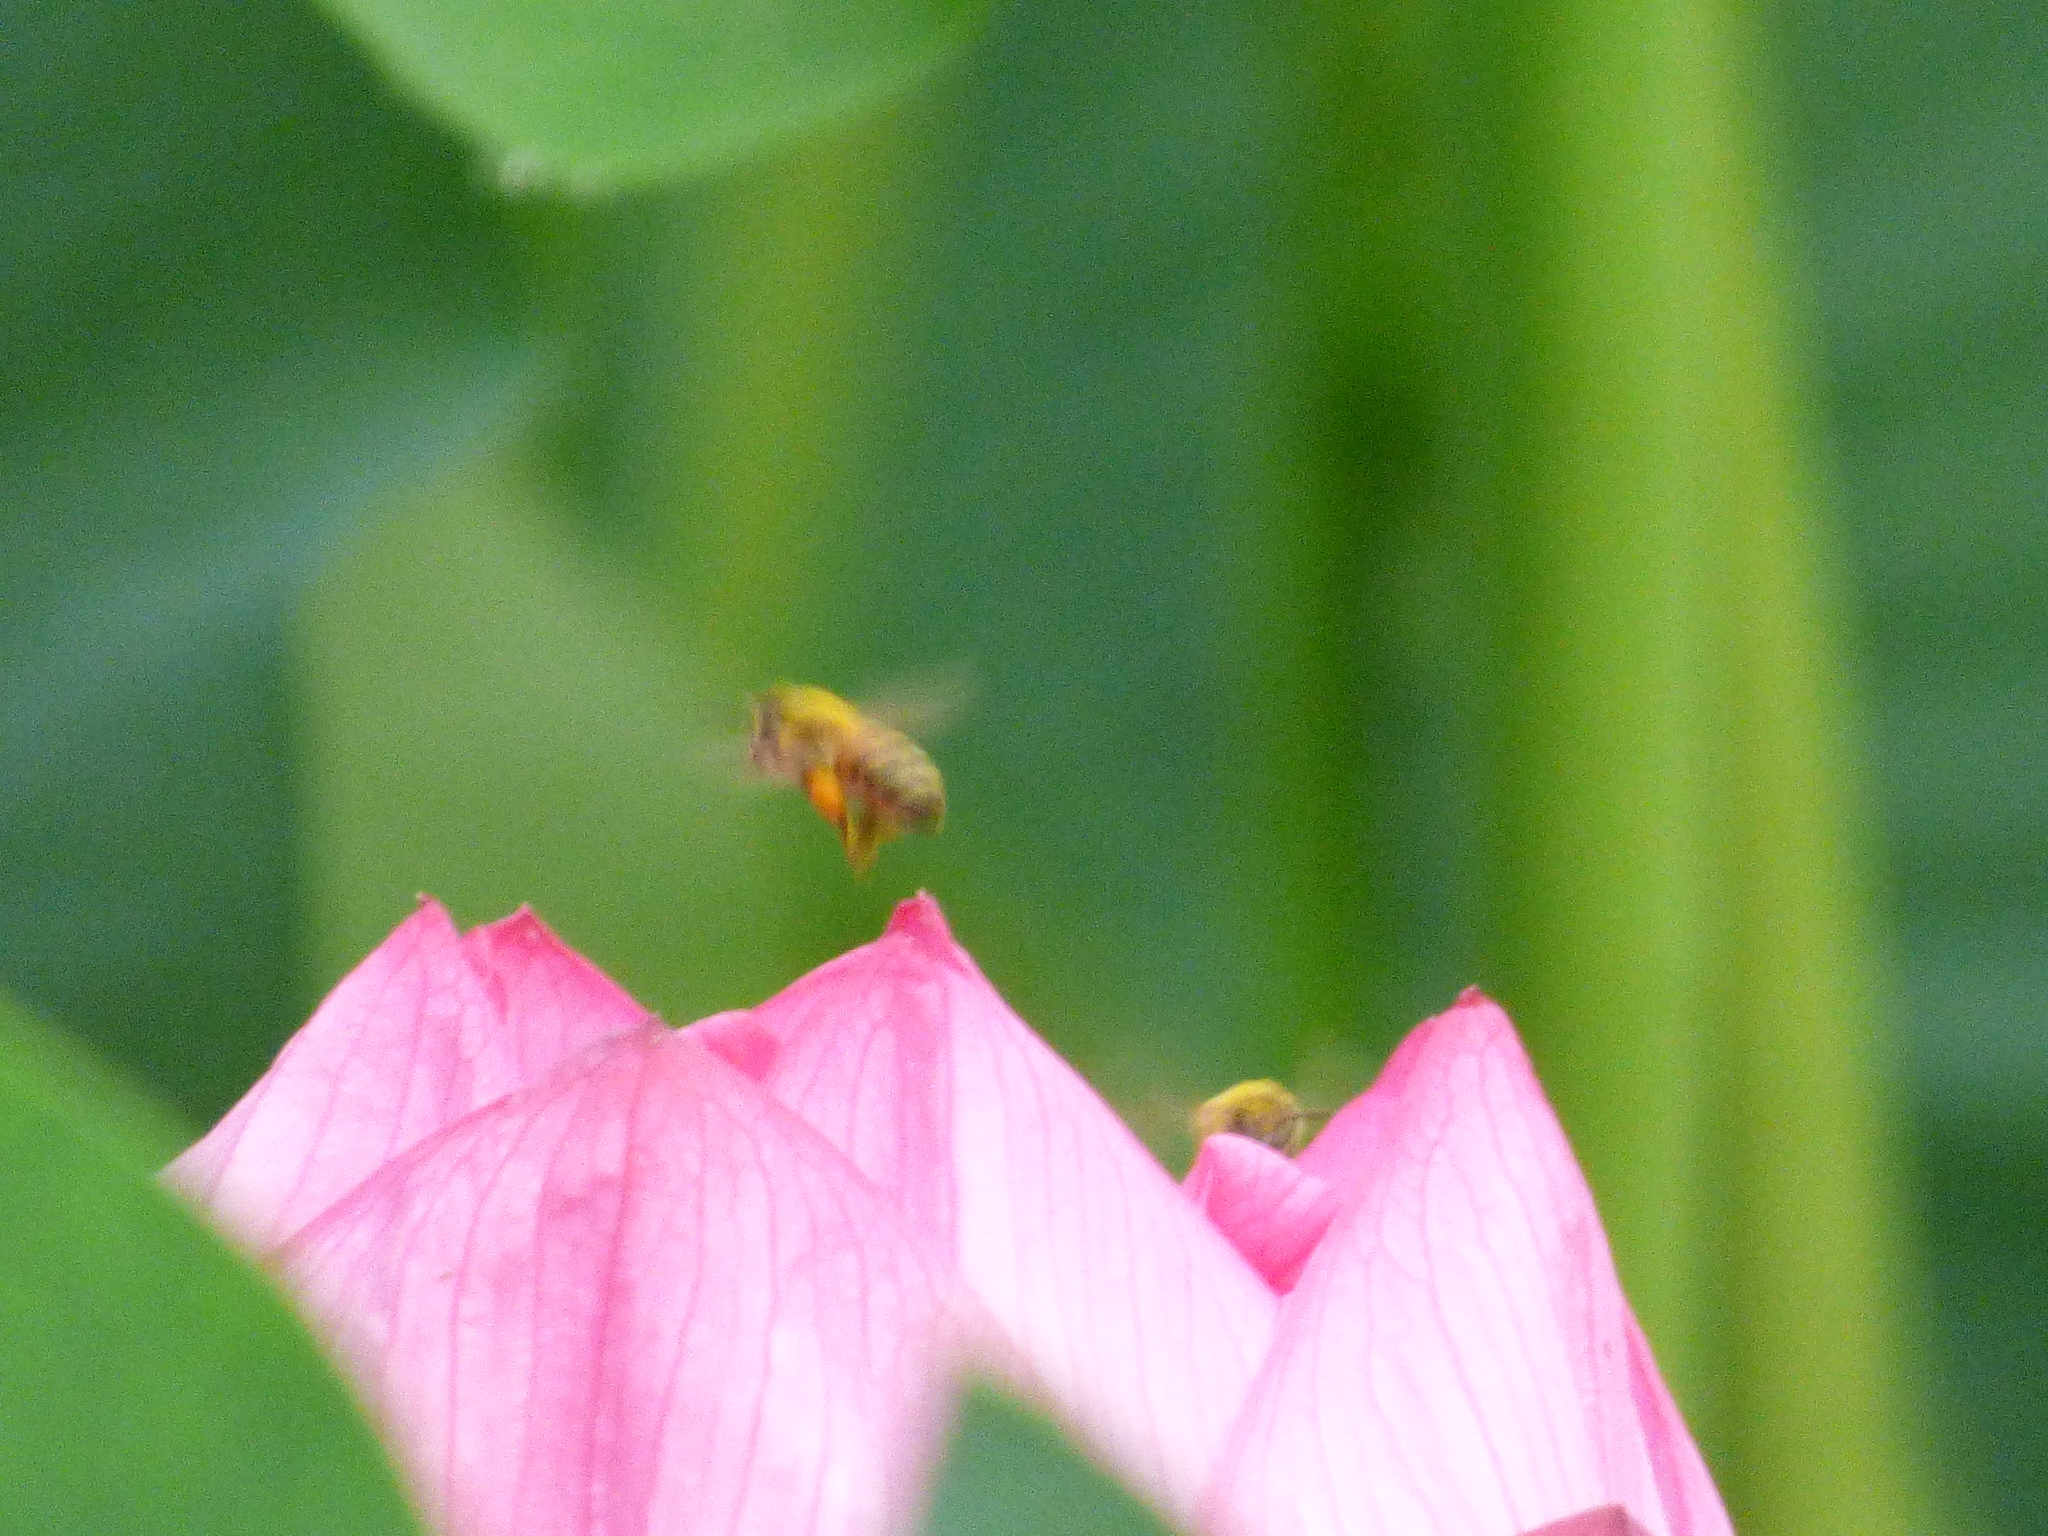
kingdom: Animalia
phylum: Arthropoda
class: Insecta
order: Hymenoptera
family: Apidae
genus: Apis
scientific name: Apis mellifera
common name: Honey bee
